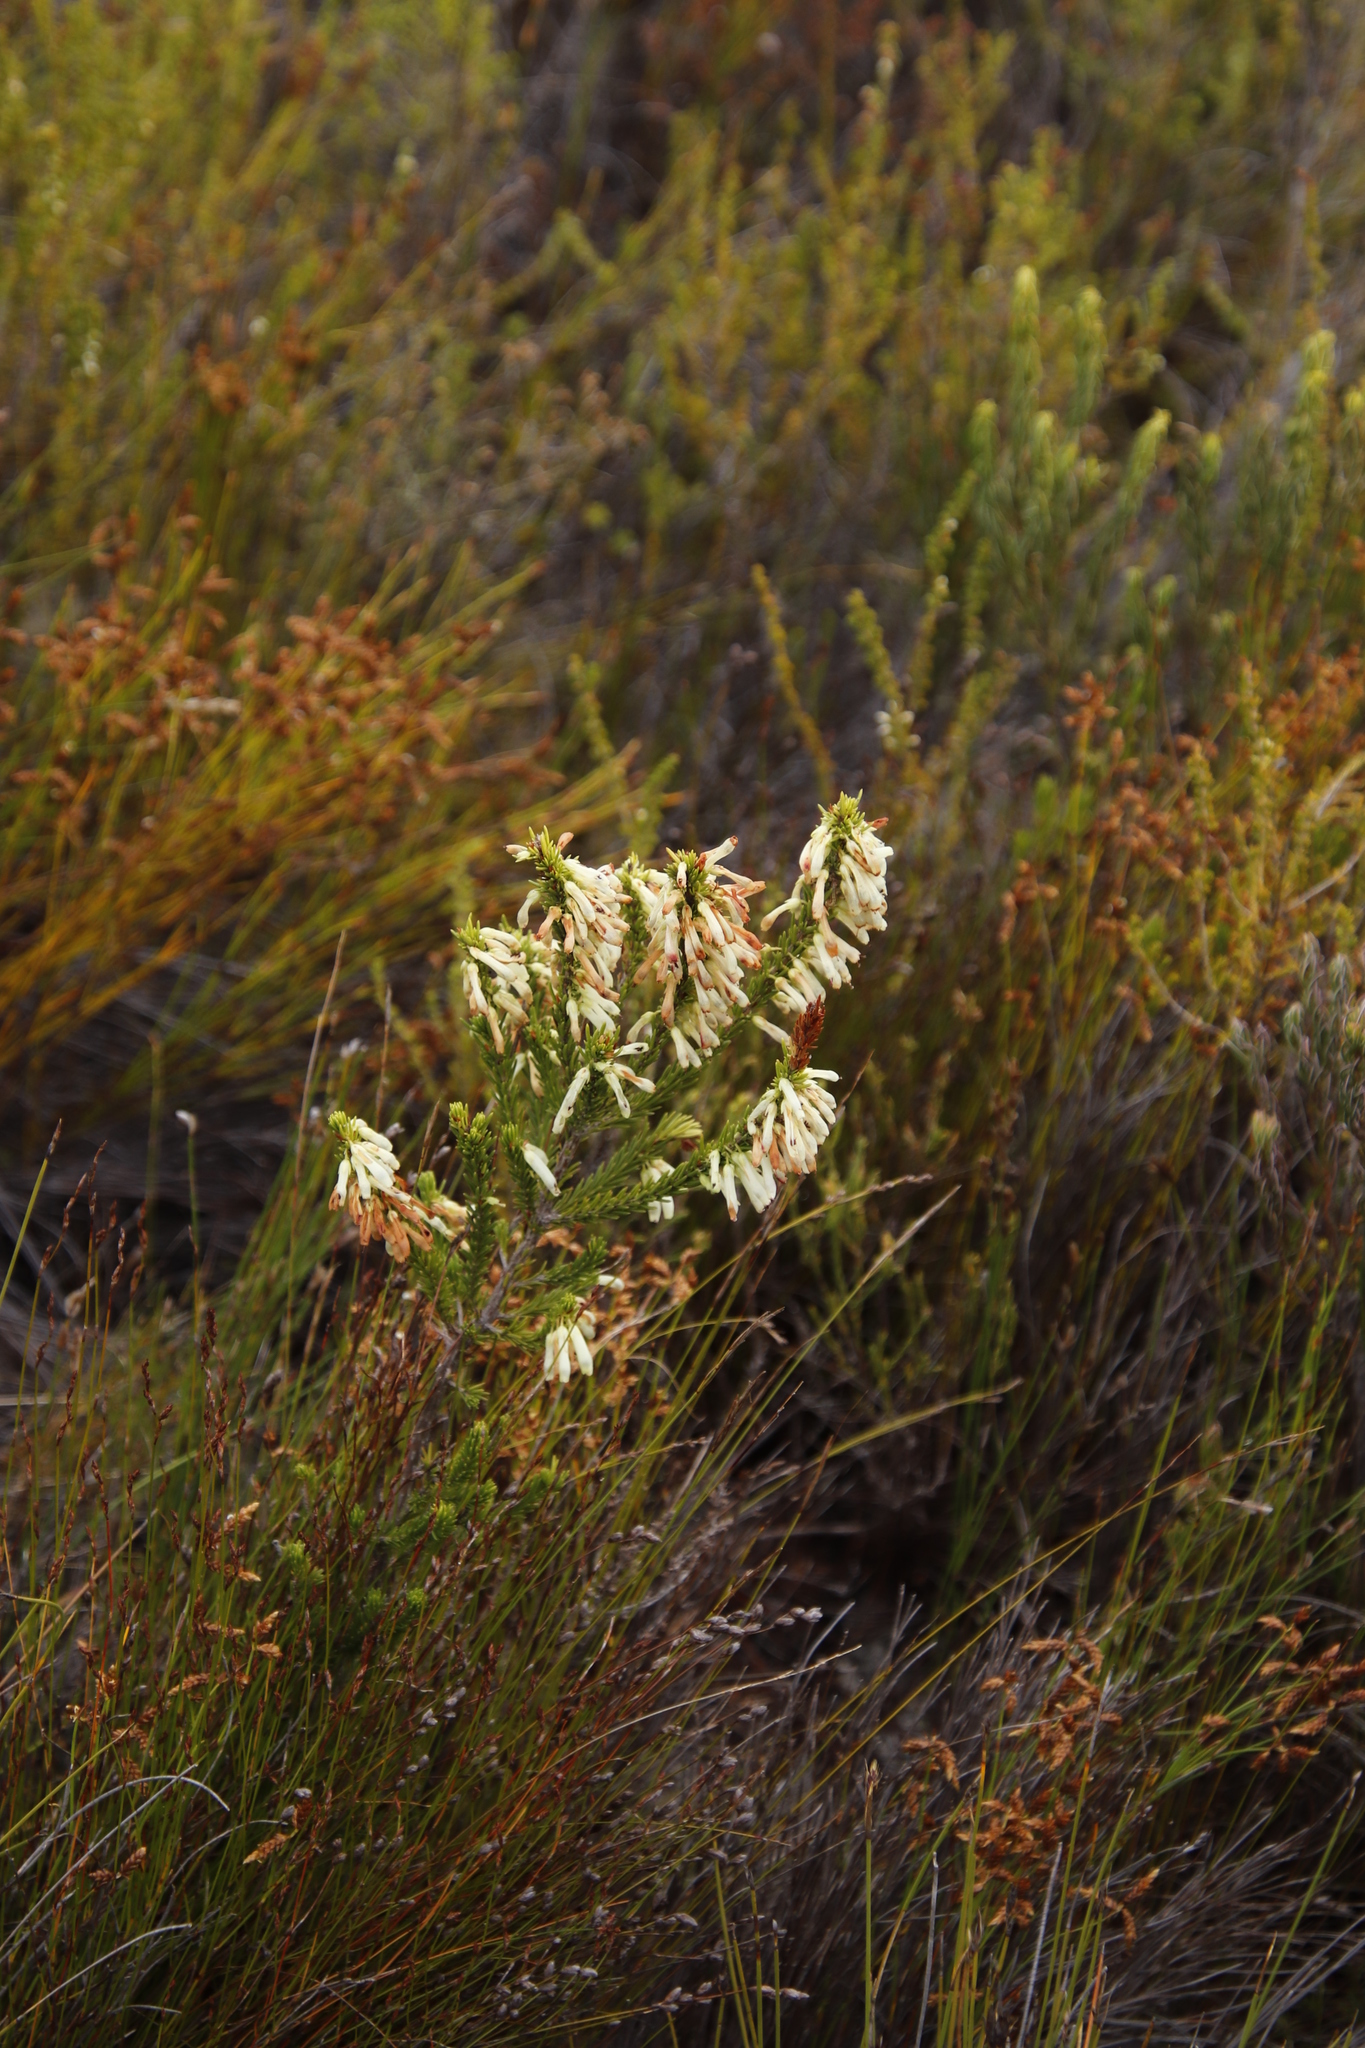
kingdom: Plantae
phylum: Tracheophyta
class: Magnoliopsida
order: Ericales
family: Ericaceae
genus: Erica
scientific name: Erica mammosa
